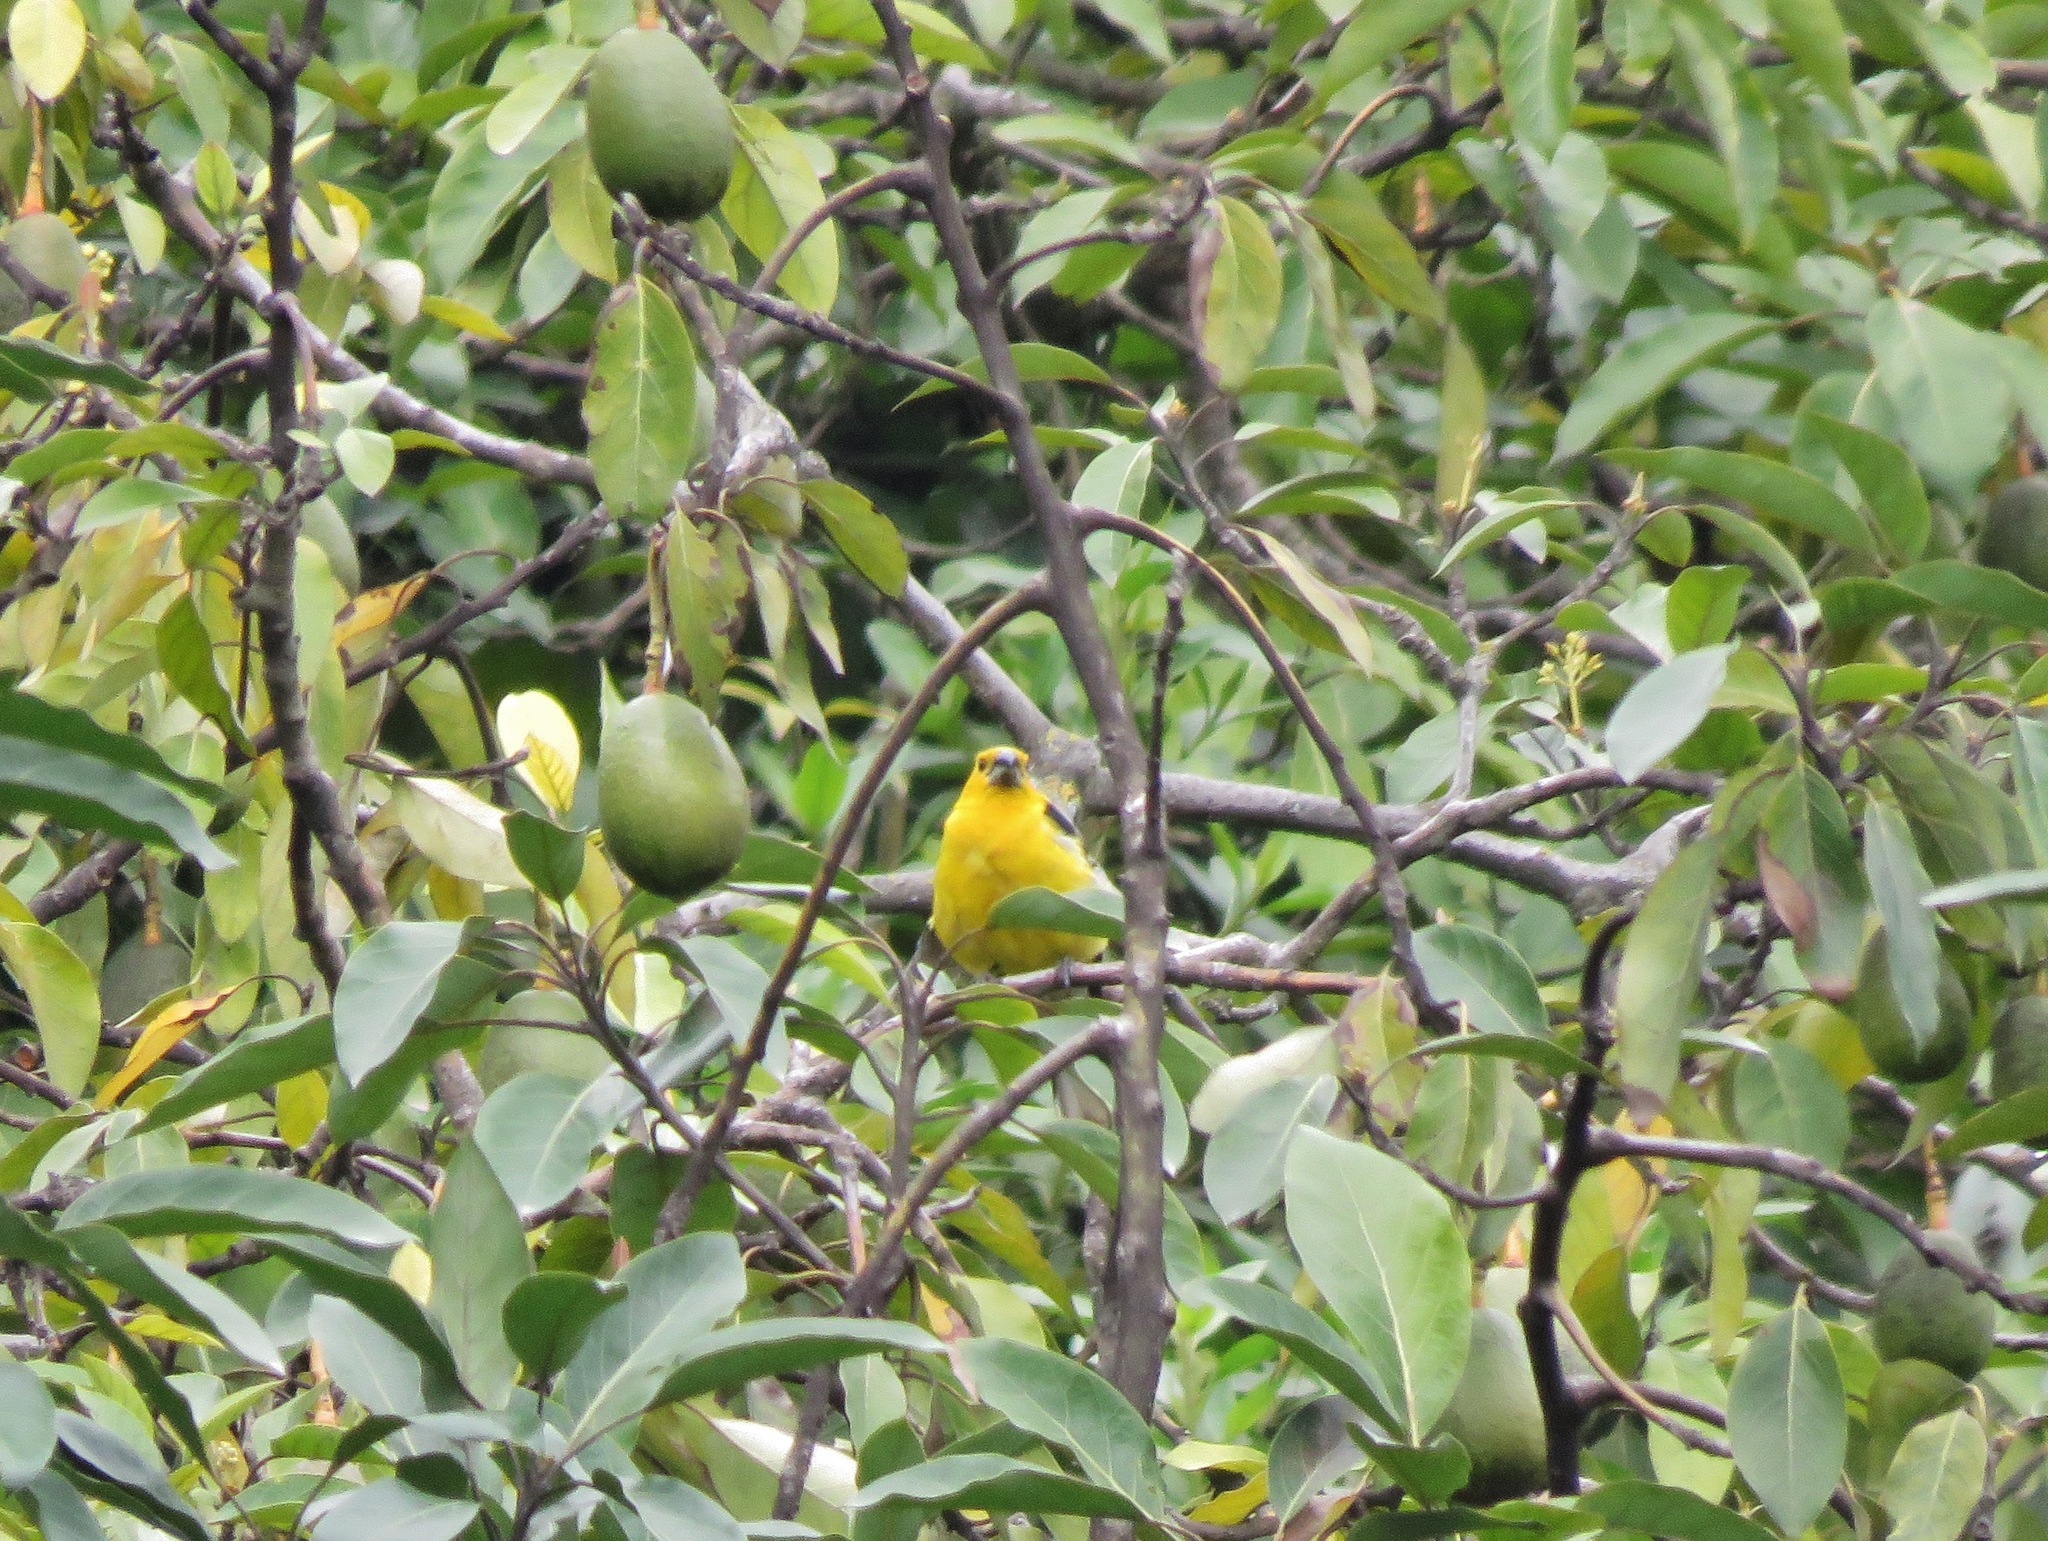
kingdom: Animalia
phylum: Chordata
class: Aves
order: Passeriformes
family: Cardinalidae
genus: Pheucticus
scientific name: Pheucticus chrysogaster
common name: Golden grosbeak
